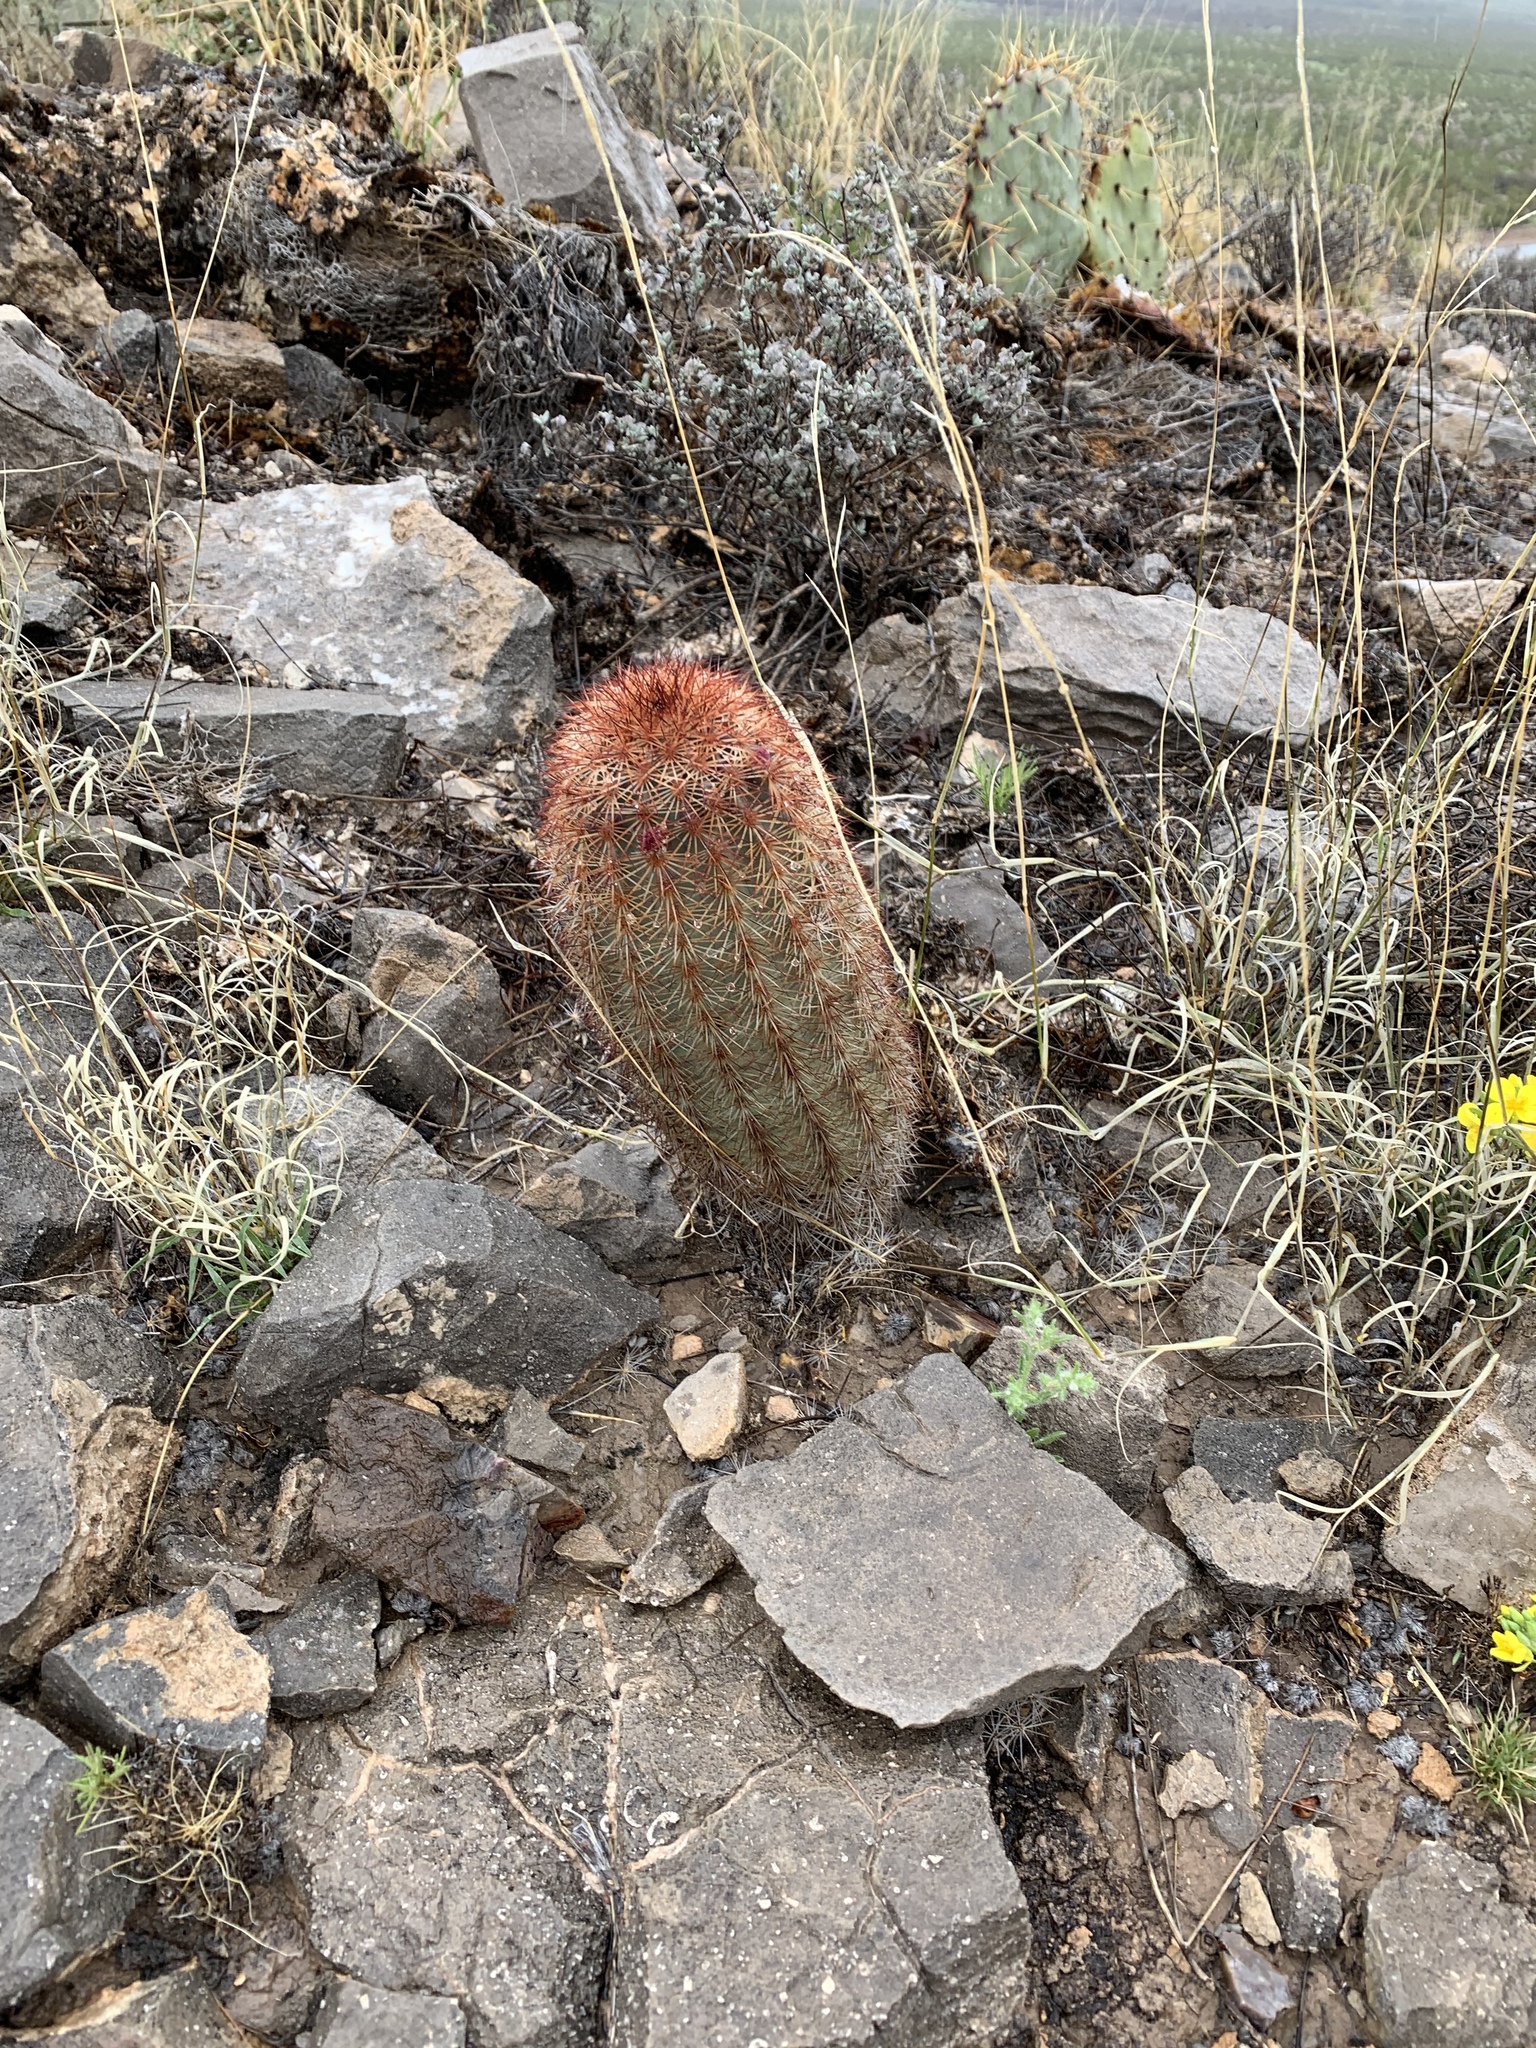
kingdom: Plantae
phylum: Tracheophyta
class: Magnoliopsida
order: Caryophyllales
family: Cactaceae
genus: Echinocereus
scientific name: Echinocereus dasyacanthus
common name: Spiny hedgehog cactus
